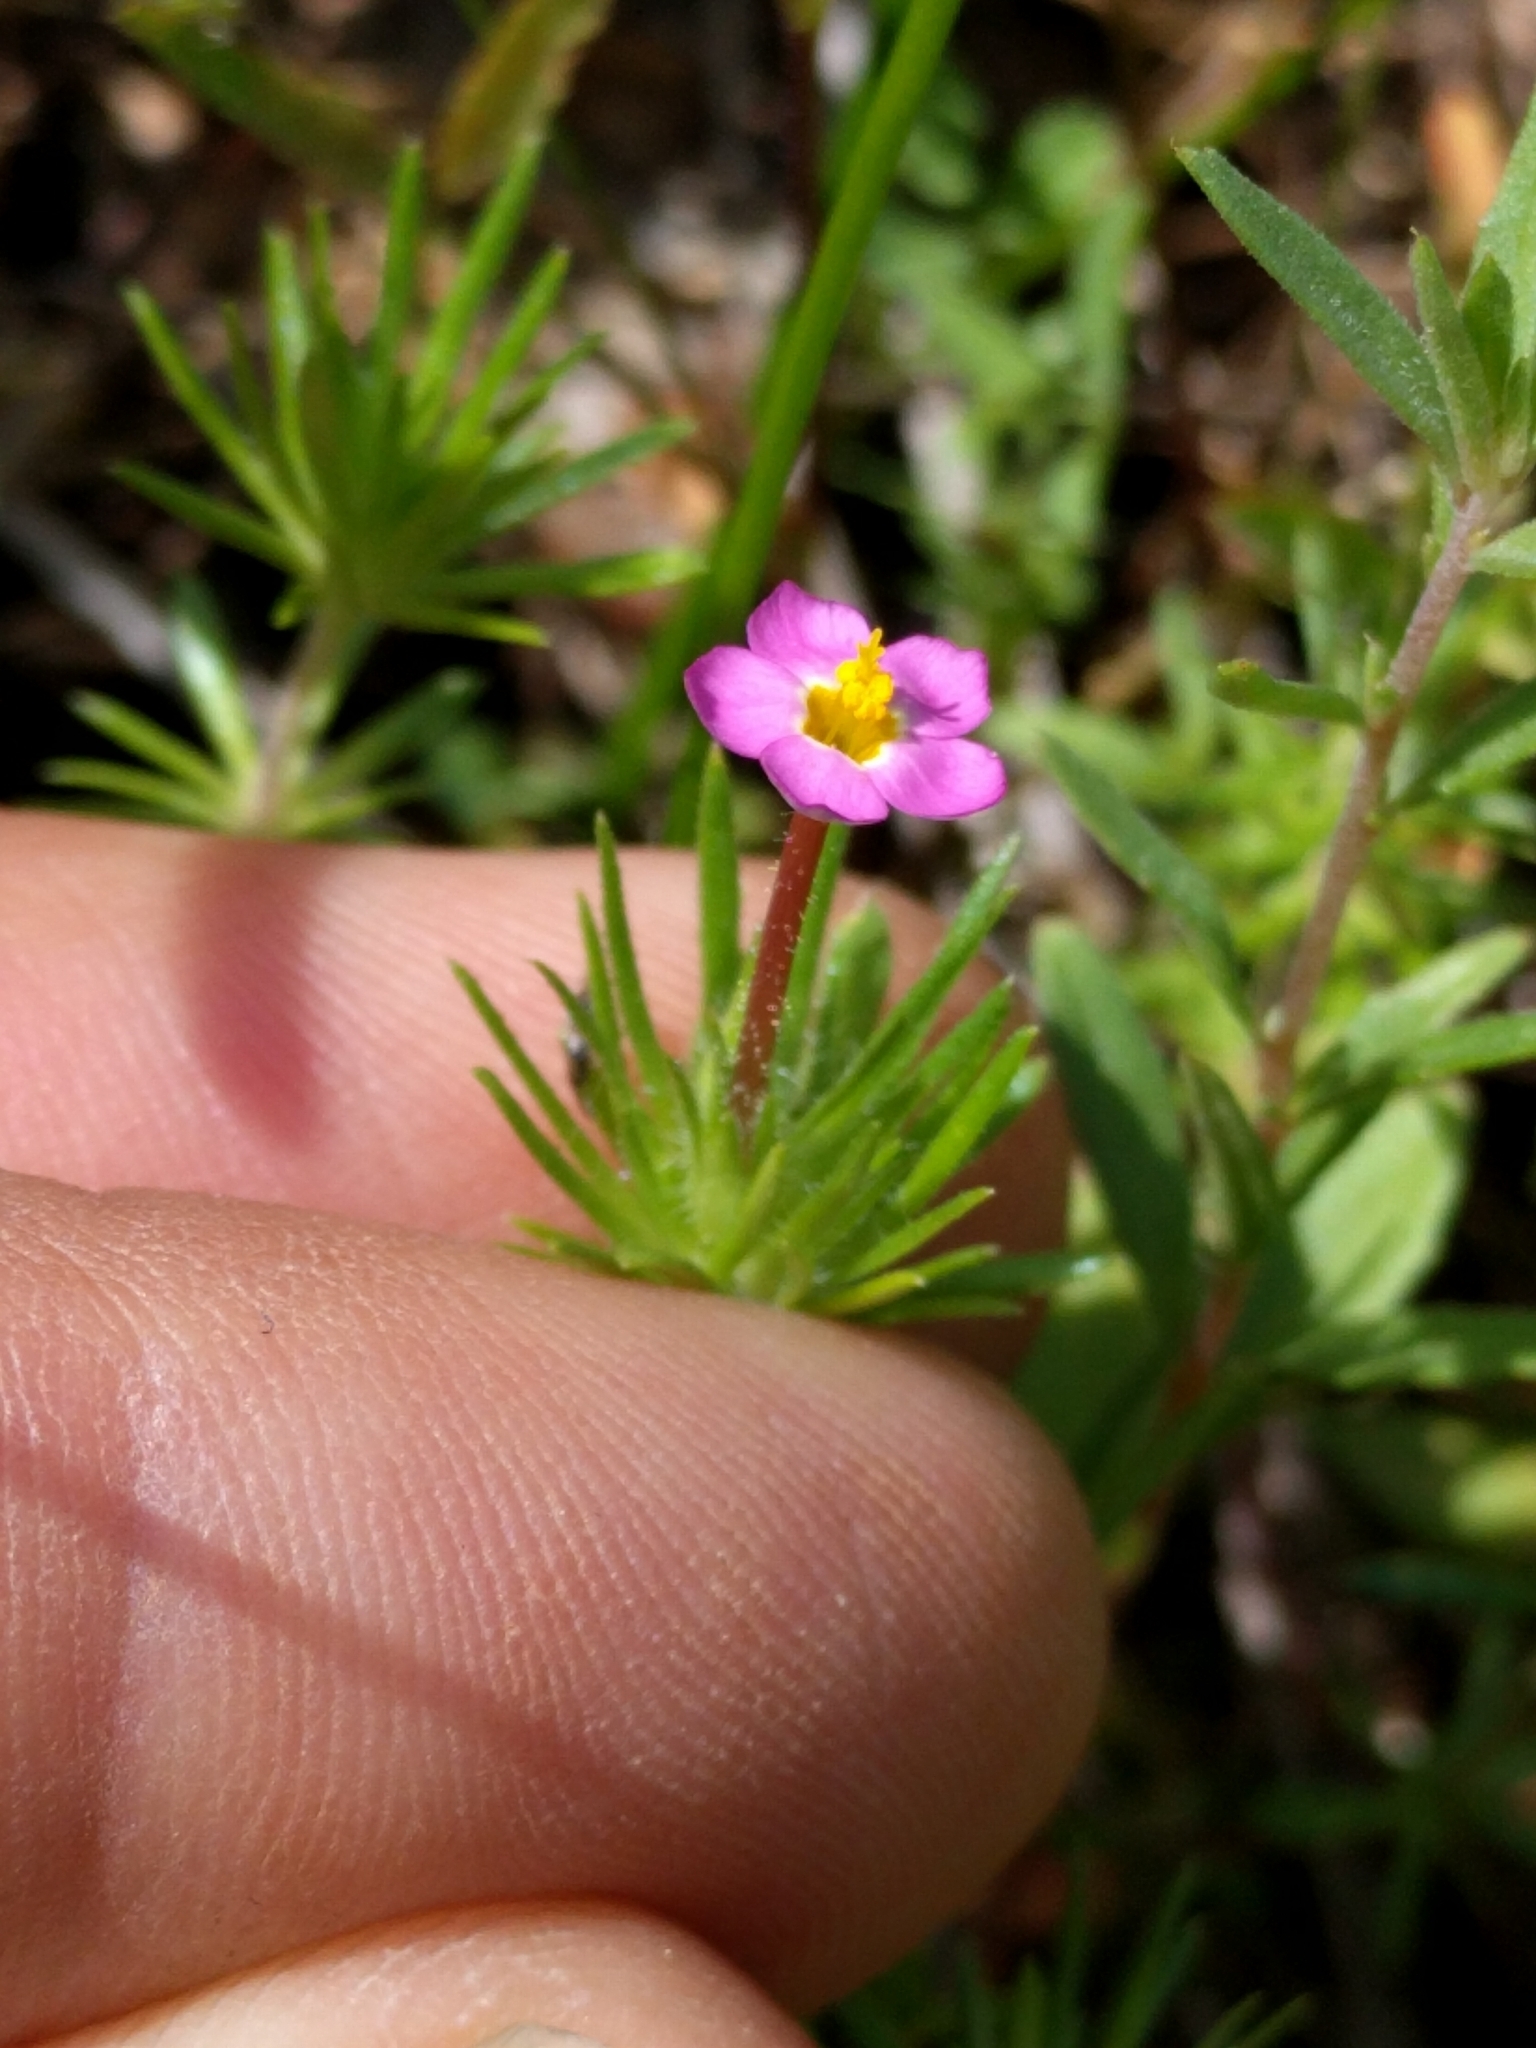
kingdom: Plantae
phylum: Tracheophyta
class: Magnoliopsida
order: Ericales
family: Polemoniaceae
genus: Leptosiphon
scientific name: Leptosiphon bicolor
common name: True babystars
